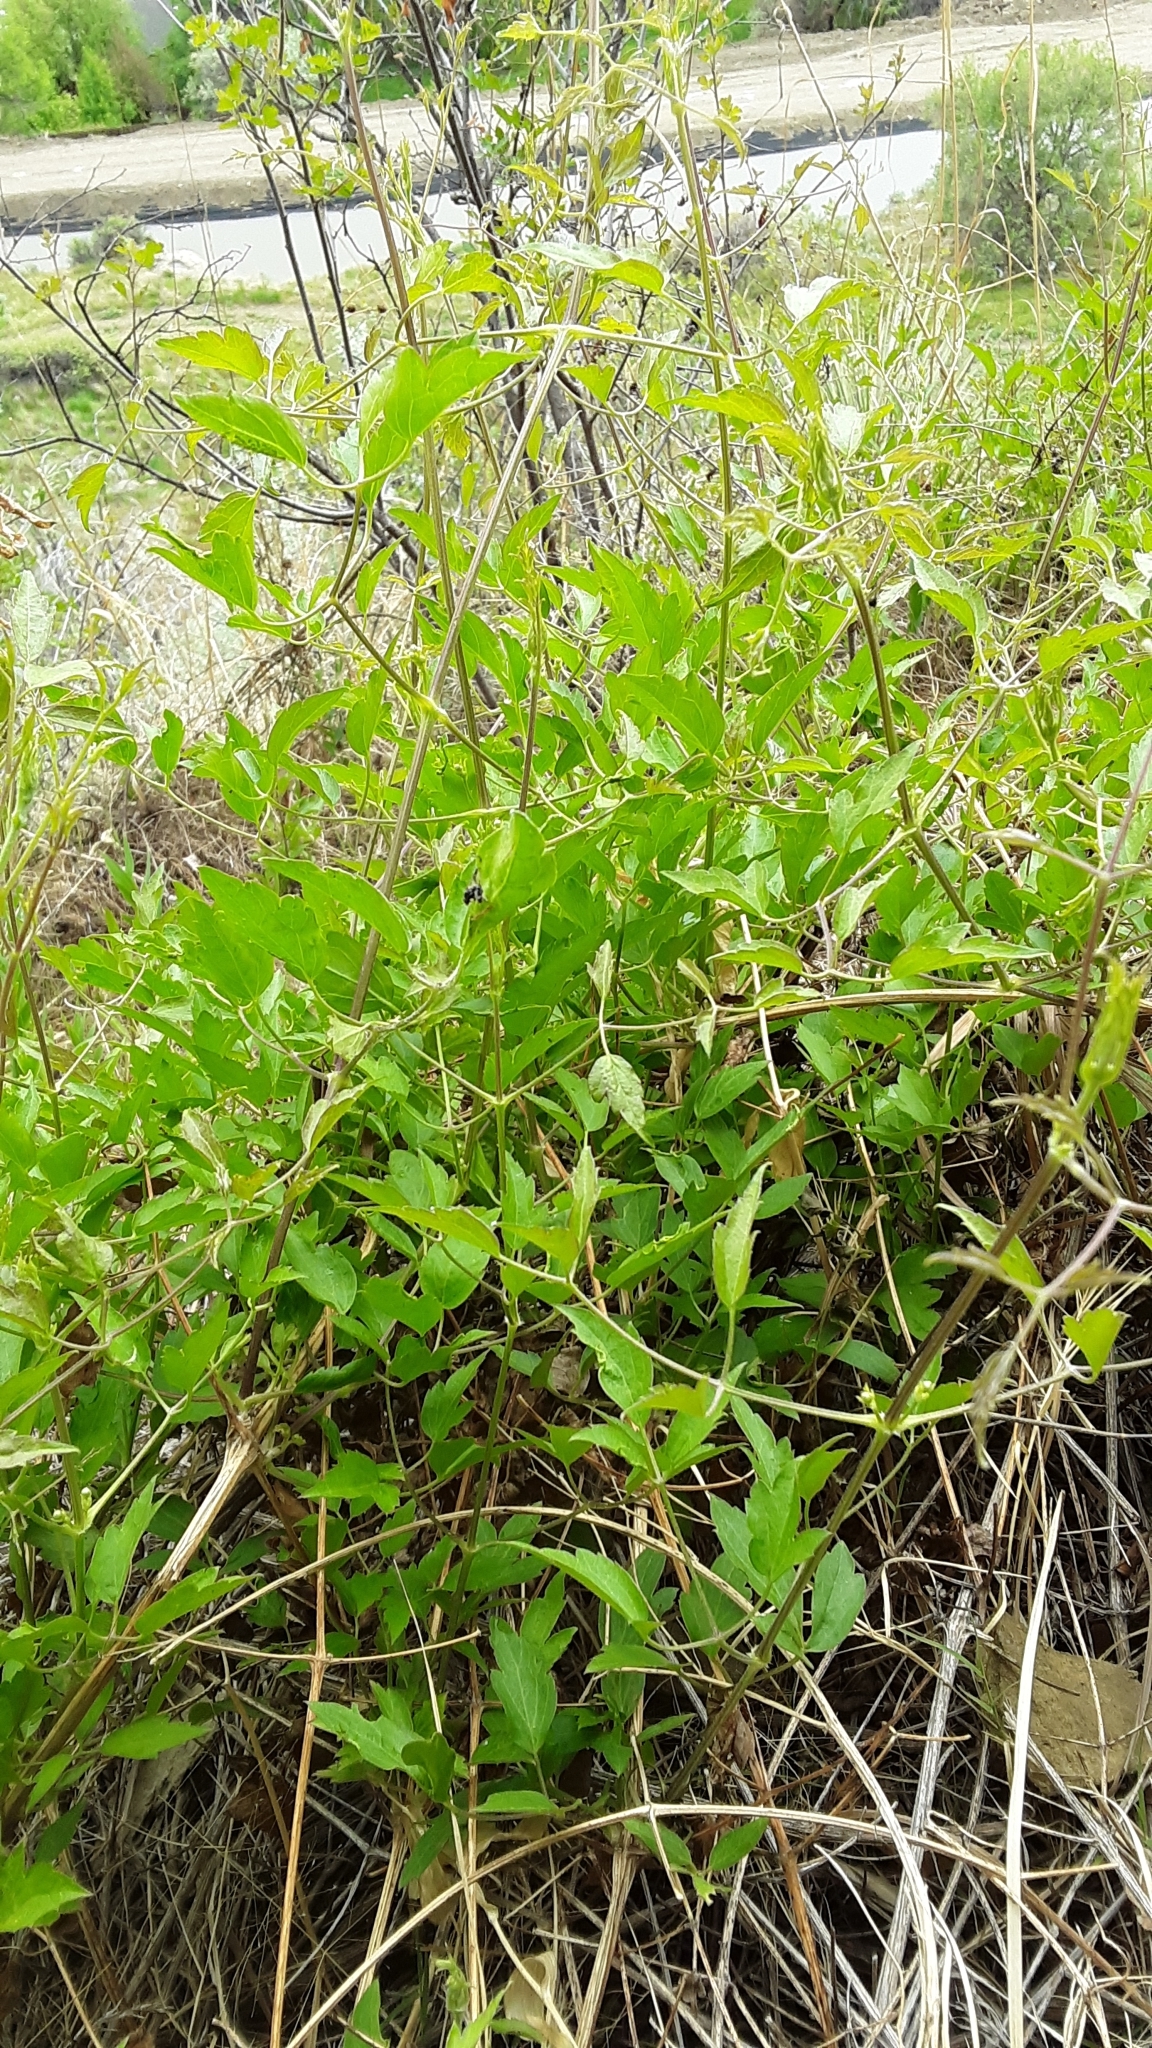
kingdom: Plantae
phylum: Tracheophyta
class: Magnoliopsida
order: Ranunculales
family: Ranunculaceae
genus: Clematis
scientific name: Clematis ligusticifolia
